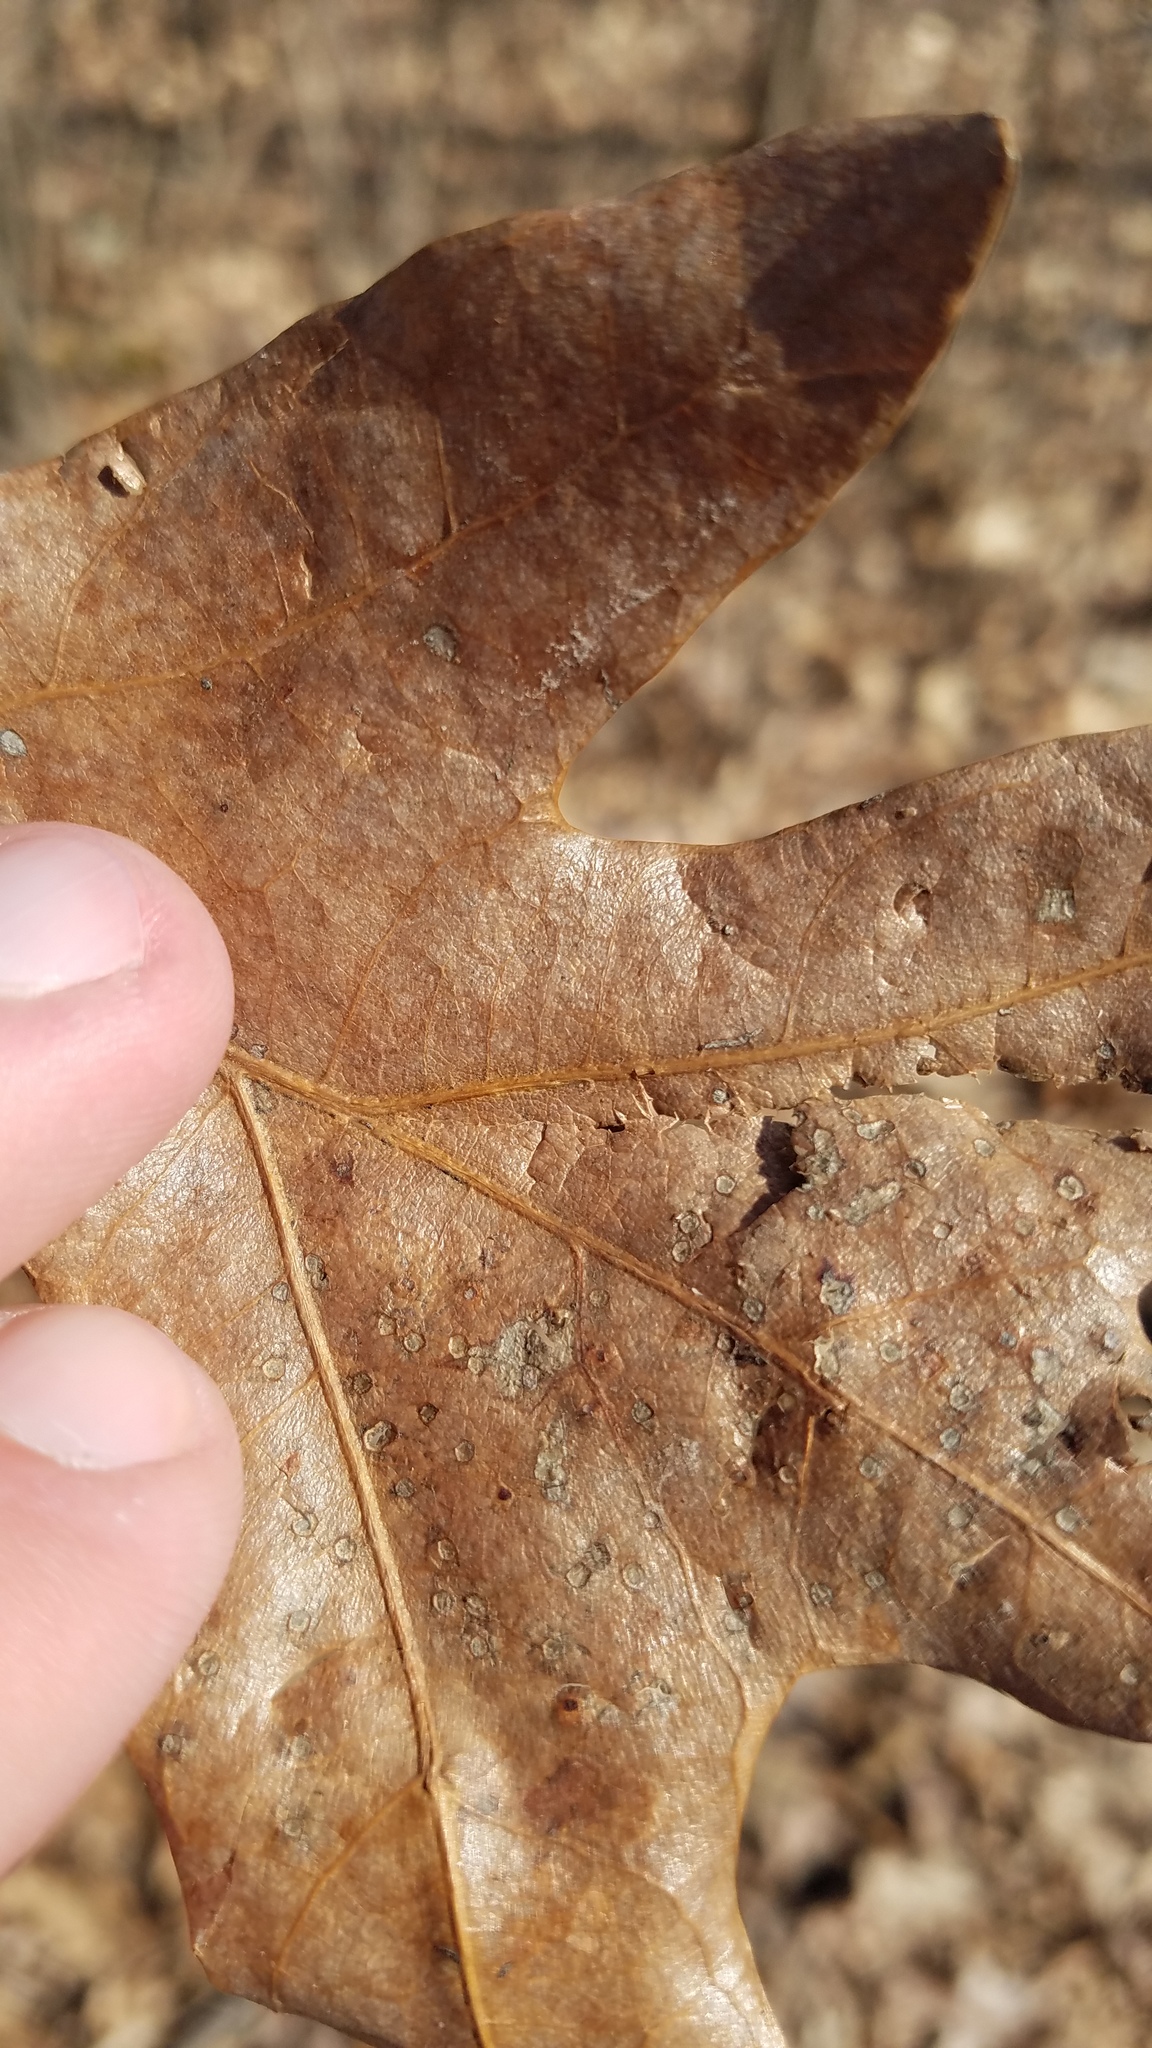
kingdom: Animalia
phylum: Arthropoda
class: Insecta
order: Hymenoptera
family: Cynipidae
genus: Neuroterus
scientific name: Neuroterus
